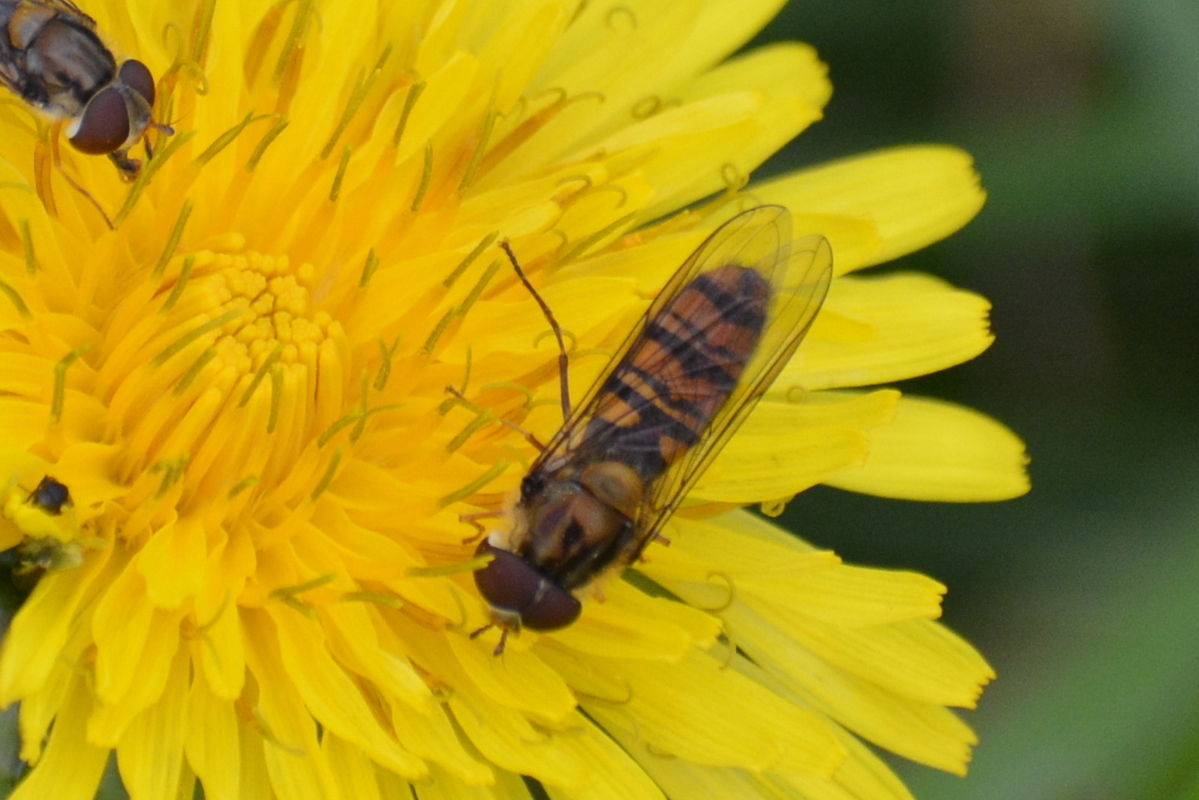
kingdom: Animalia
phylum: Arthropoda
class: Insecta
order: Diptera
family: Syrphidae
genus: Episyrphus
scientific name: Episyrphus balteatus
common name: Marmalade hoverfly
